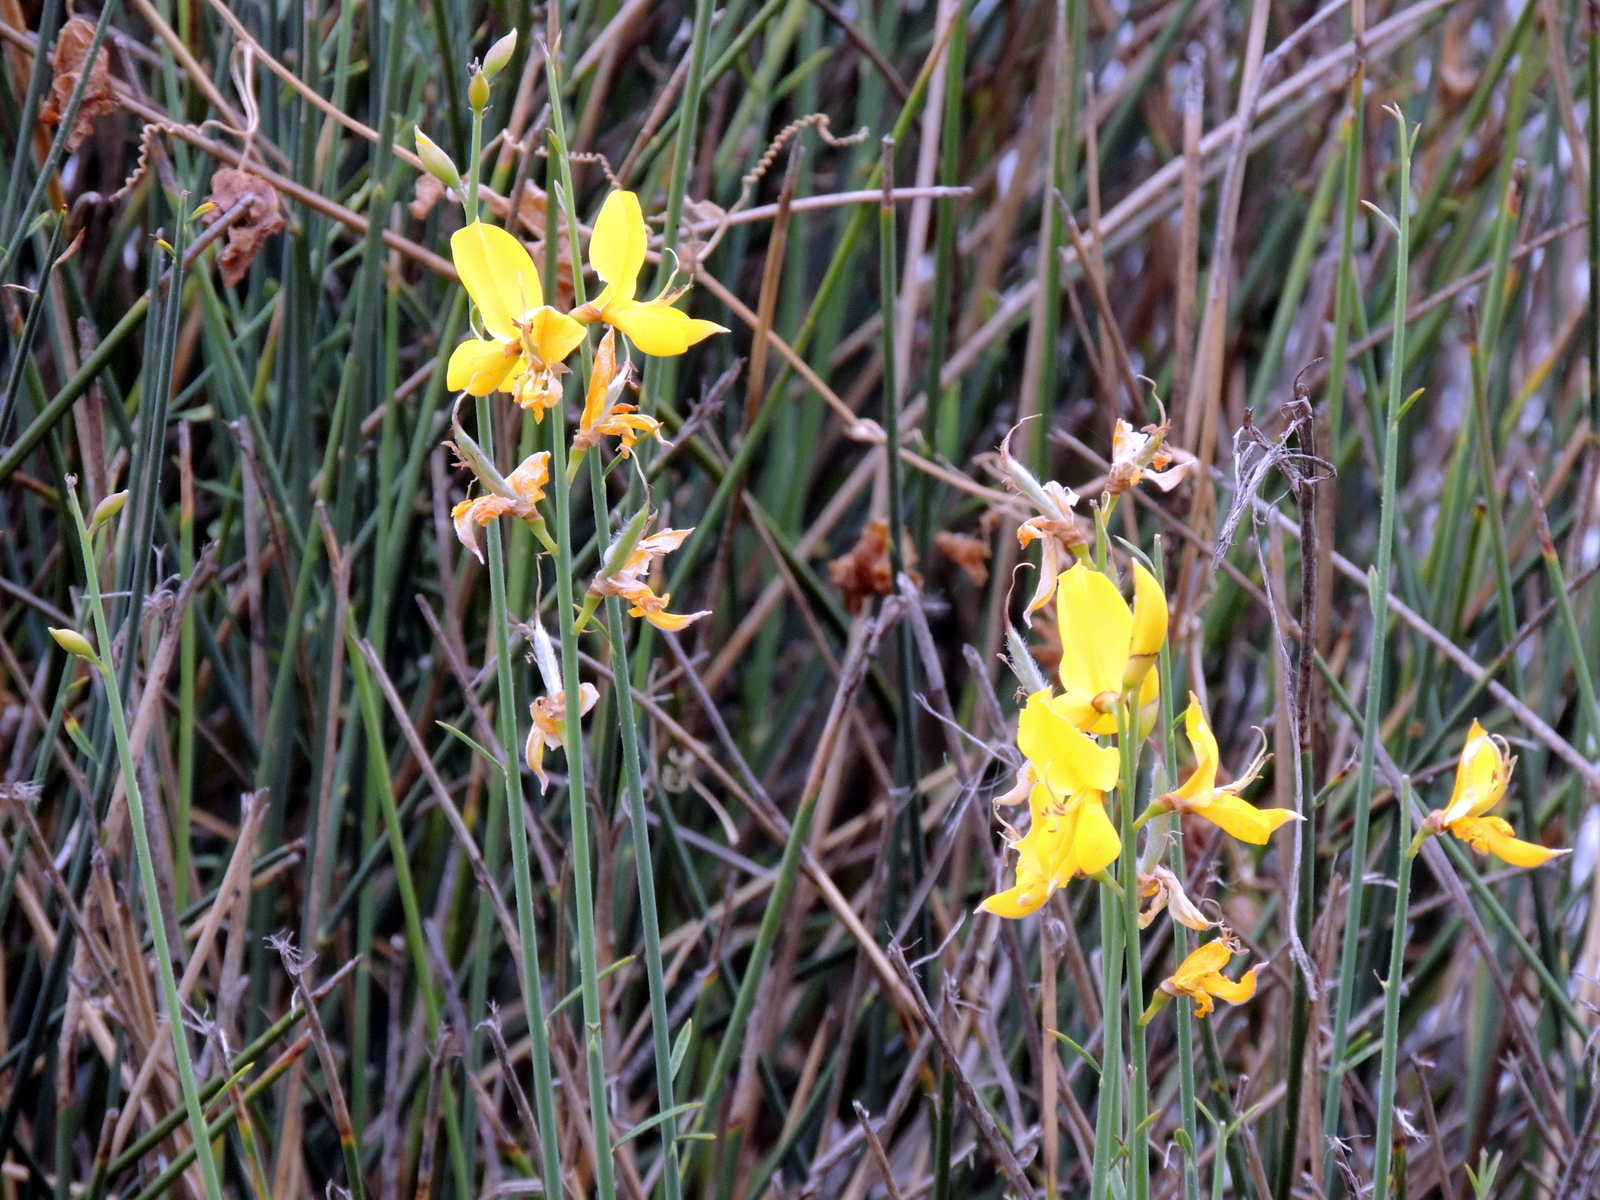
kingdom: Plantae
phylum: Tracheophyta
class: Magnoliopsida
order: Fabales
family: Fabaceae
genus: Spartium
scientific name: Spartium junceum
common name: Spanish broom
